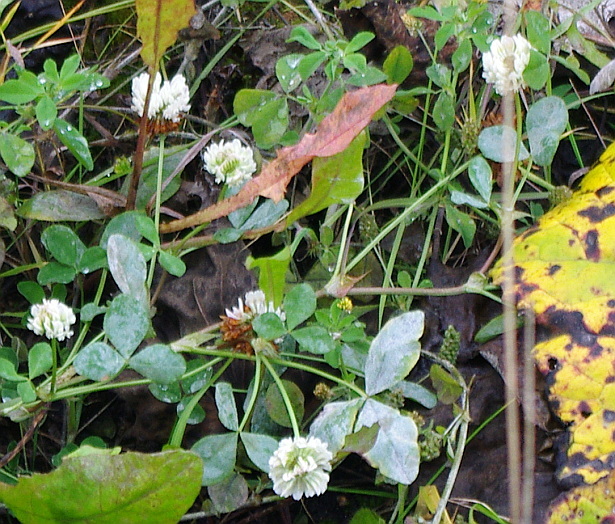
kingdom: Plantae
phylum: Tracheophyta
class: Magnoliopsida
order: Fabales
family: Fabaceae
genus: Trifolium
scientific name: Trifolium repens
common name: White clover
